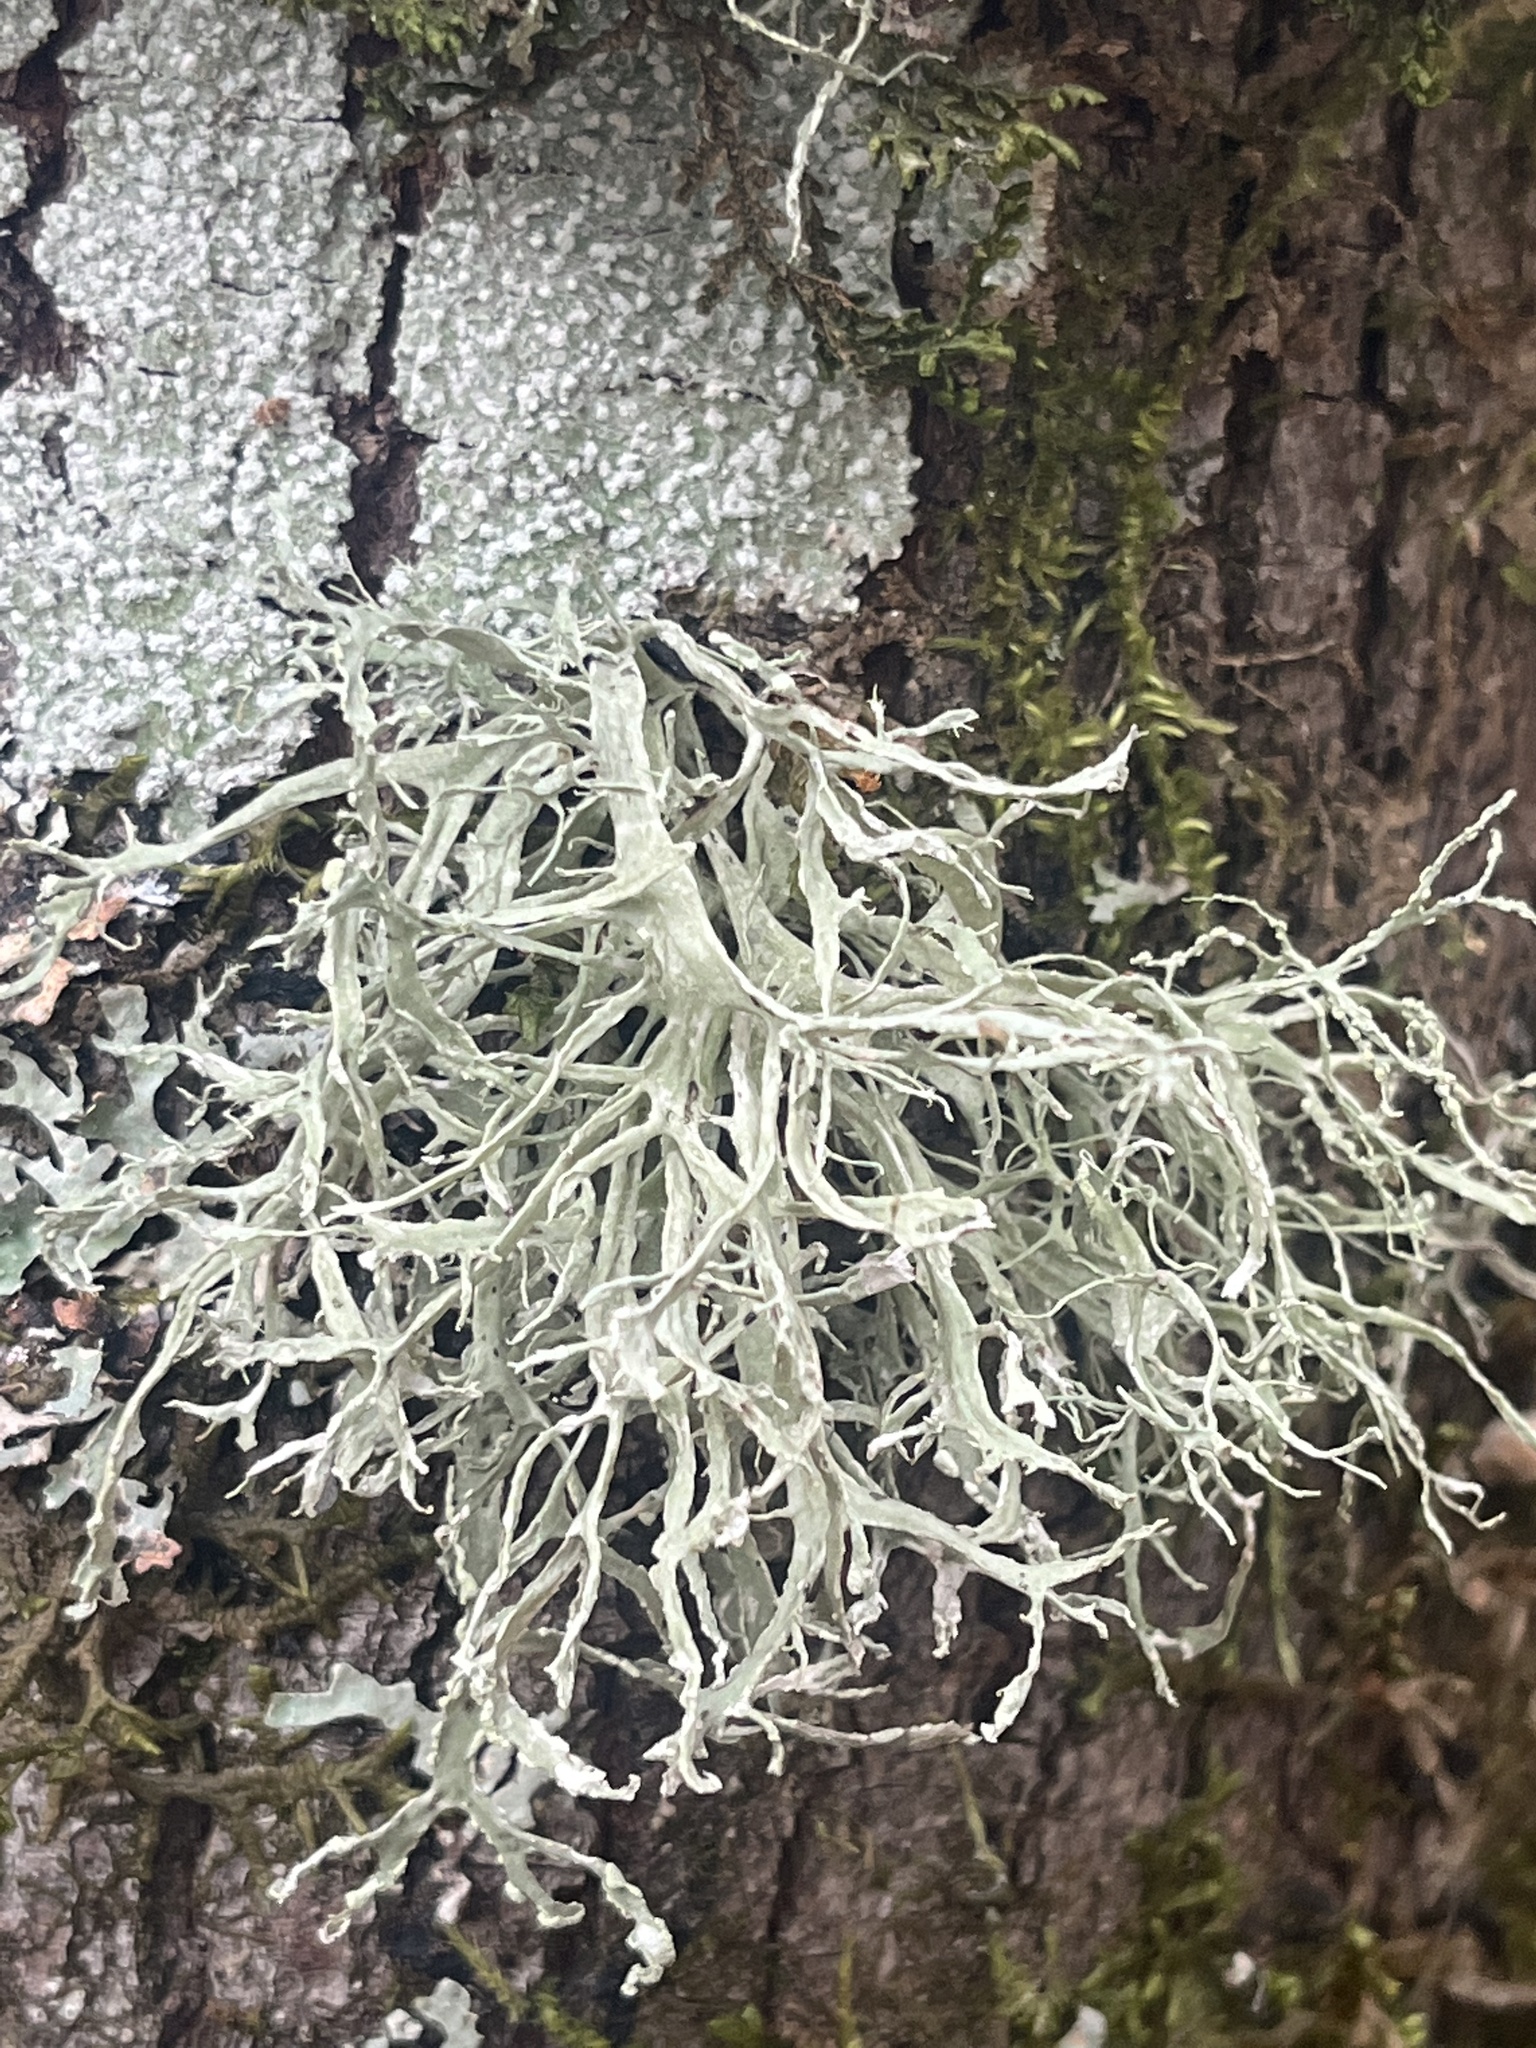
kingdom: Fungi
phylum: Ascomycota
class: Lecanoromycetes
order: Lecanorales
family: Ramalinaceae
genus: Ramalina
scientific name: Ramalina farinacea
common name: Farinose cartilage lichen
